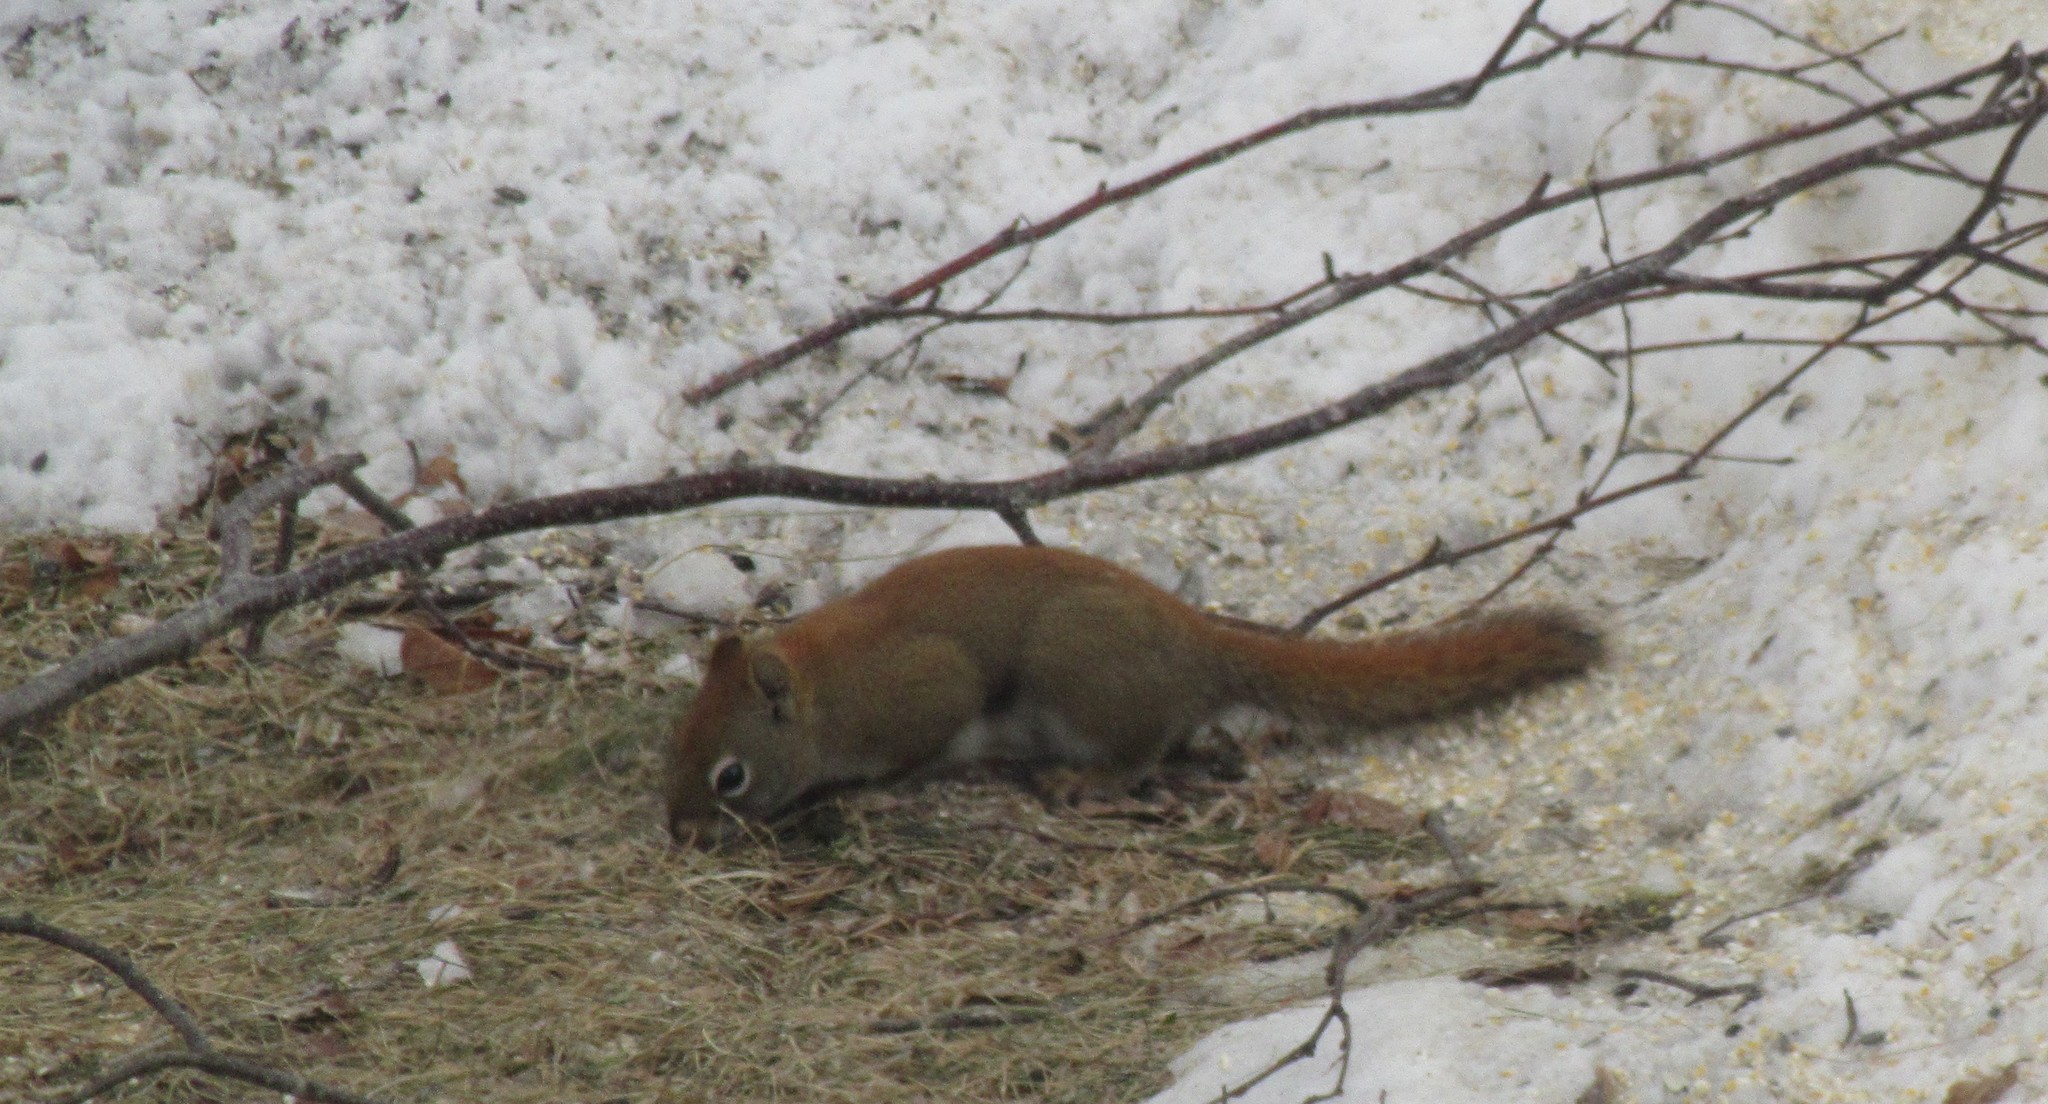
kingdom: Animalia
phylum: Chordata
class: Mammalia
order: Rodentia
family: Sciuridae
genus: Tamiasciurus
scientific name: Tamiasciurus hudsonicus
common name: Red squirrel
